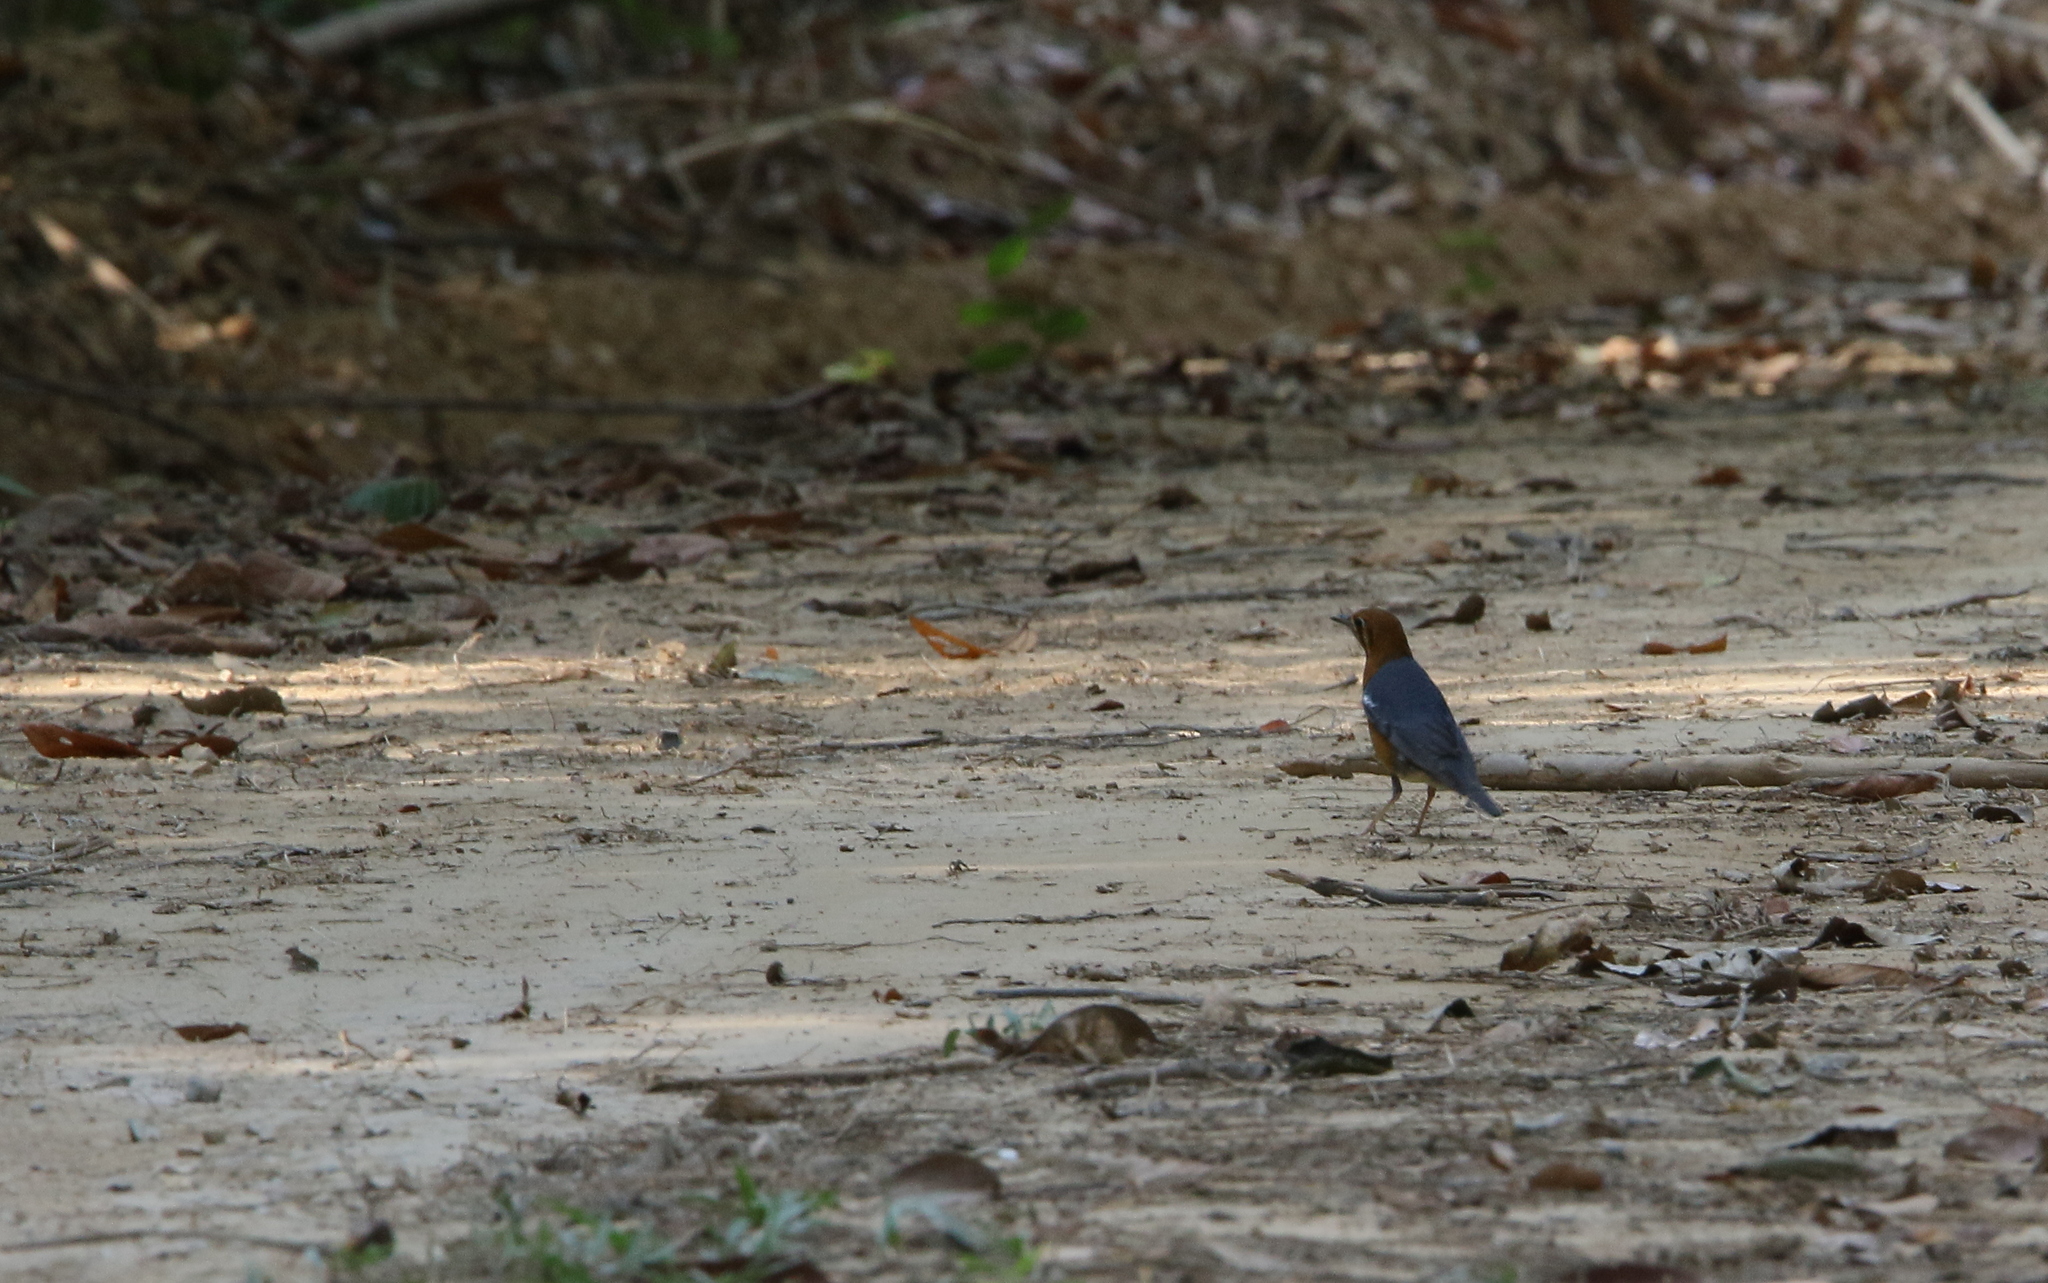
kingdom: Animalia
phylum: Chordata
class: Aves
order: Passeriformes
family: Turdidae
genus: Geokichla
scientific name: Geokichla citrina
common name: Orange-headed thrush
